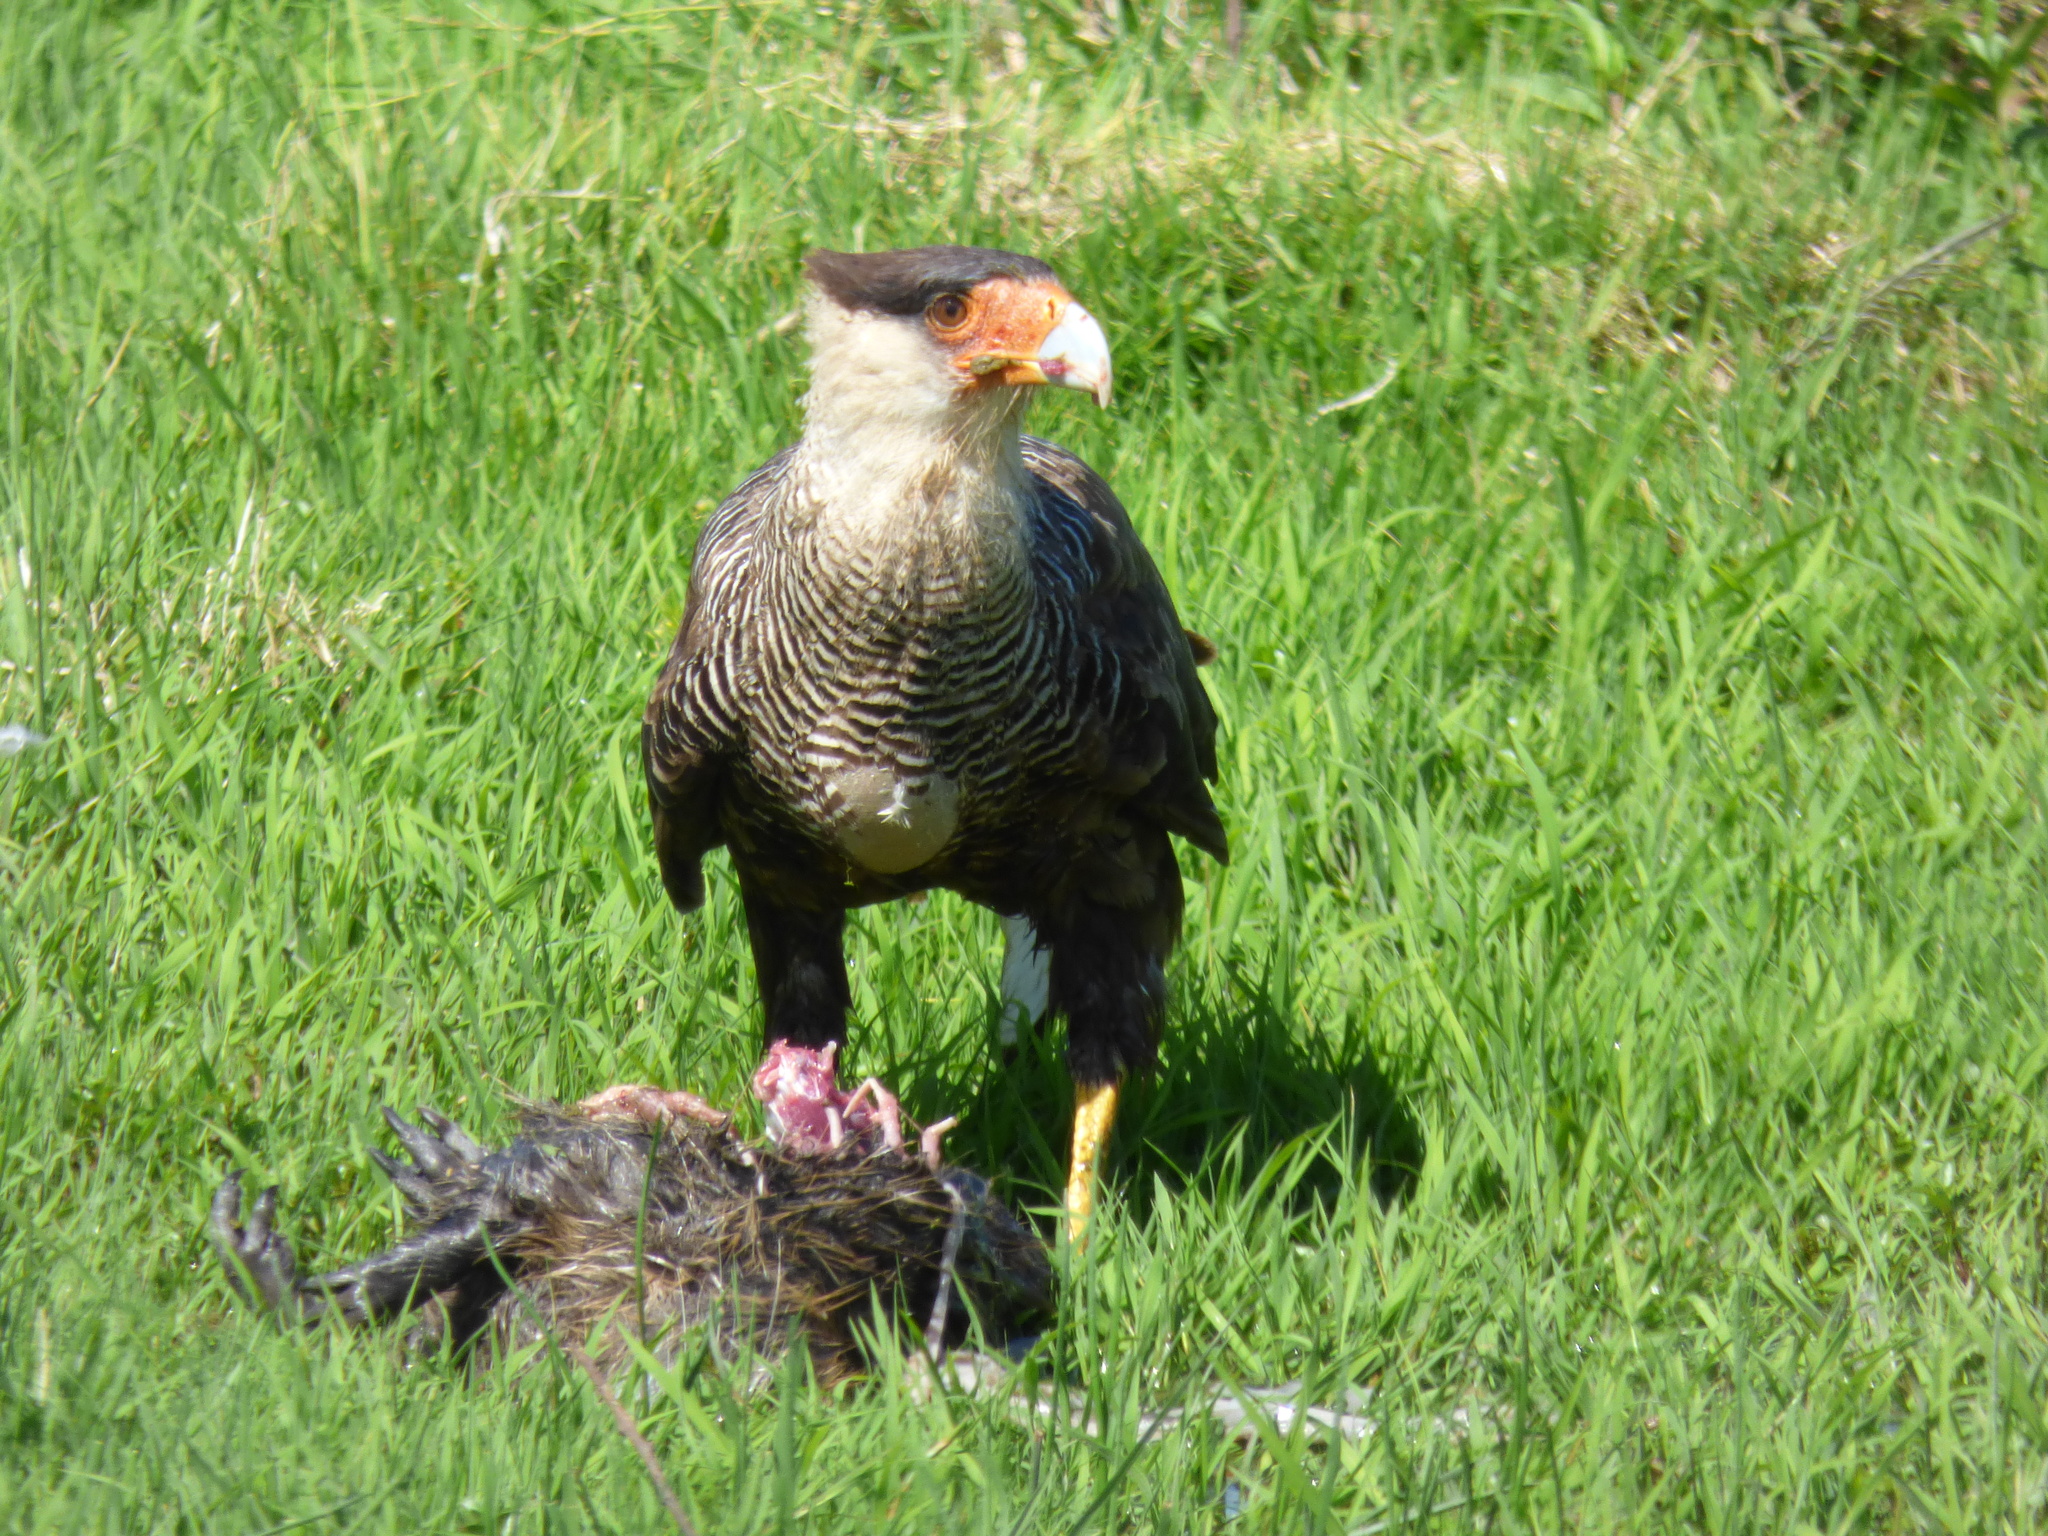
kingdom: Animalia
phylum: Chordata
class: Aves
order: Falconiformes
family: Falconidae
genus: Caracara
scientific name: Caracara plancus
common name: Southern caracara
